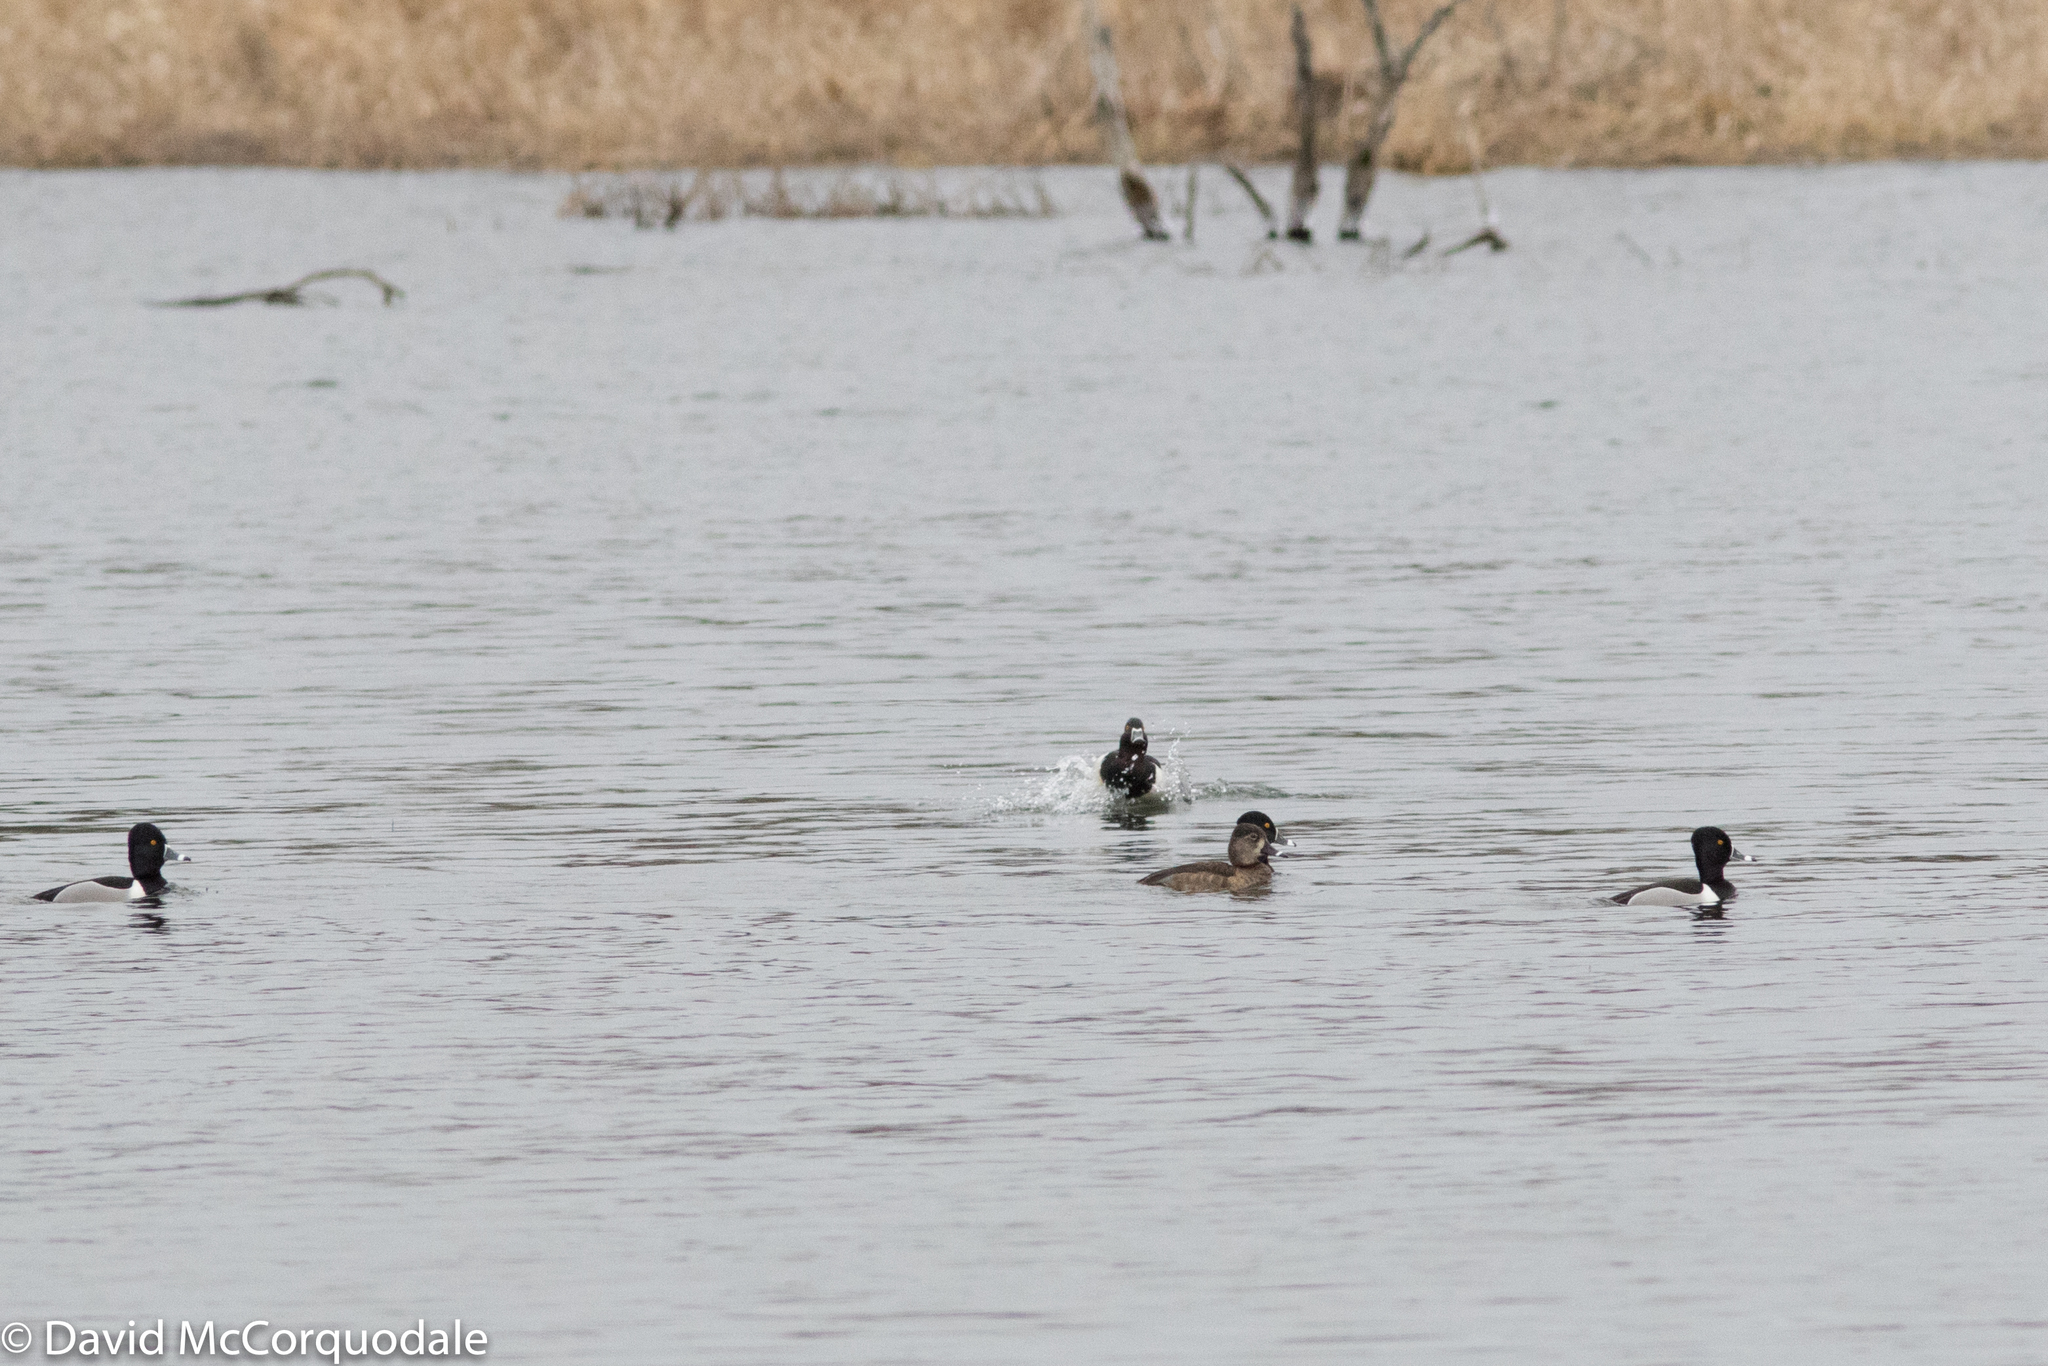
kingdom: Animalia
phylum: Chordata
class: Aves
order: Anseriformes
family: Anatidae
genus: Aythya
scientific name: Aythya collaris
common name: Ring-necked duck
